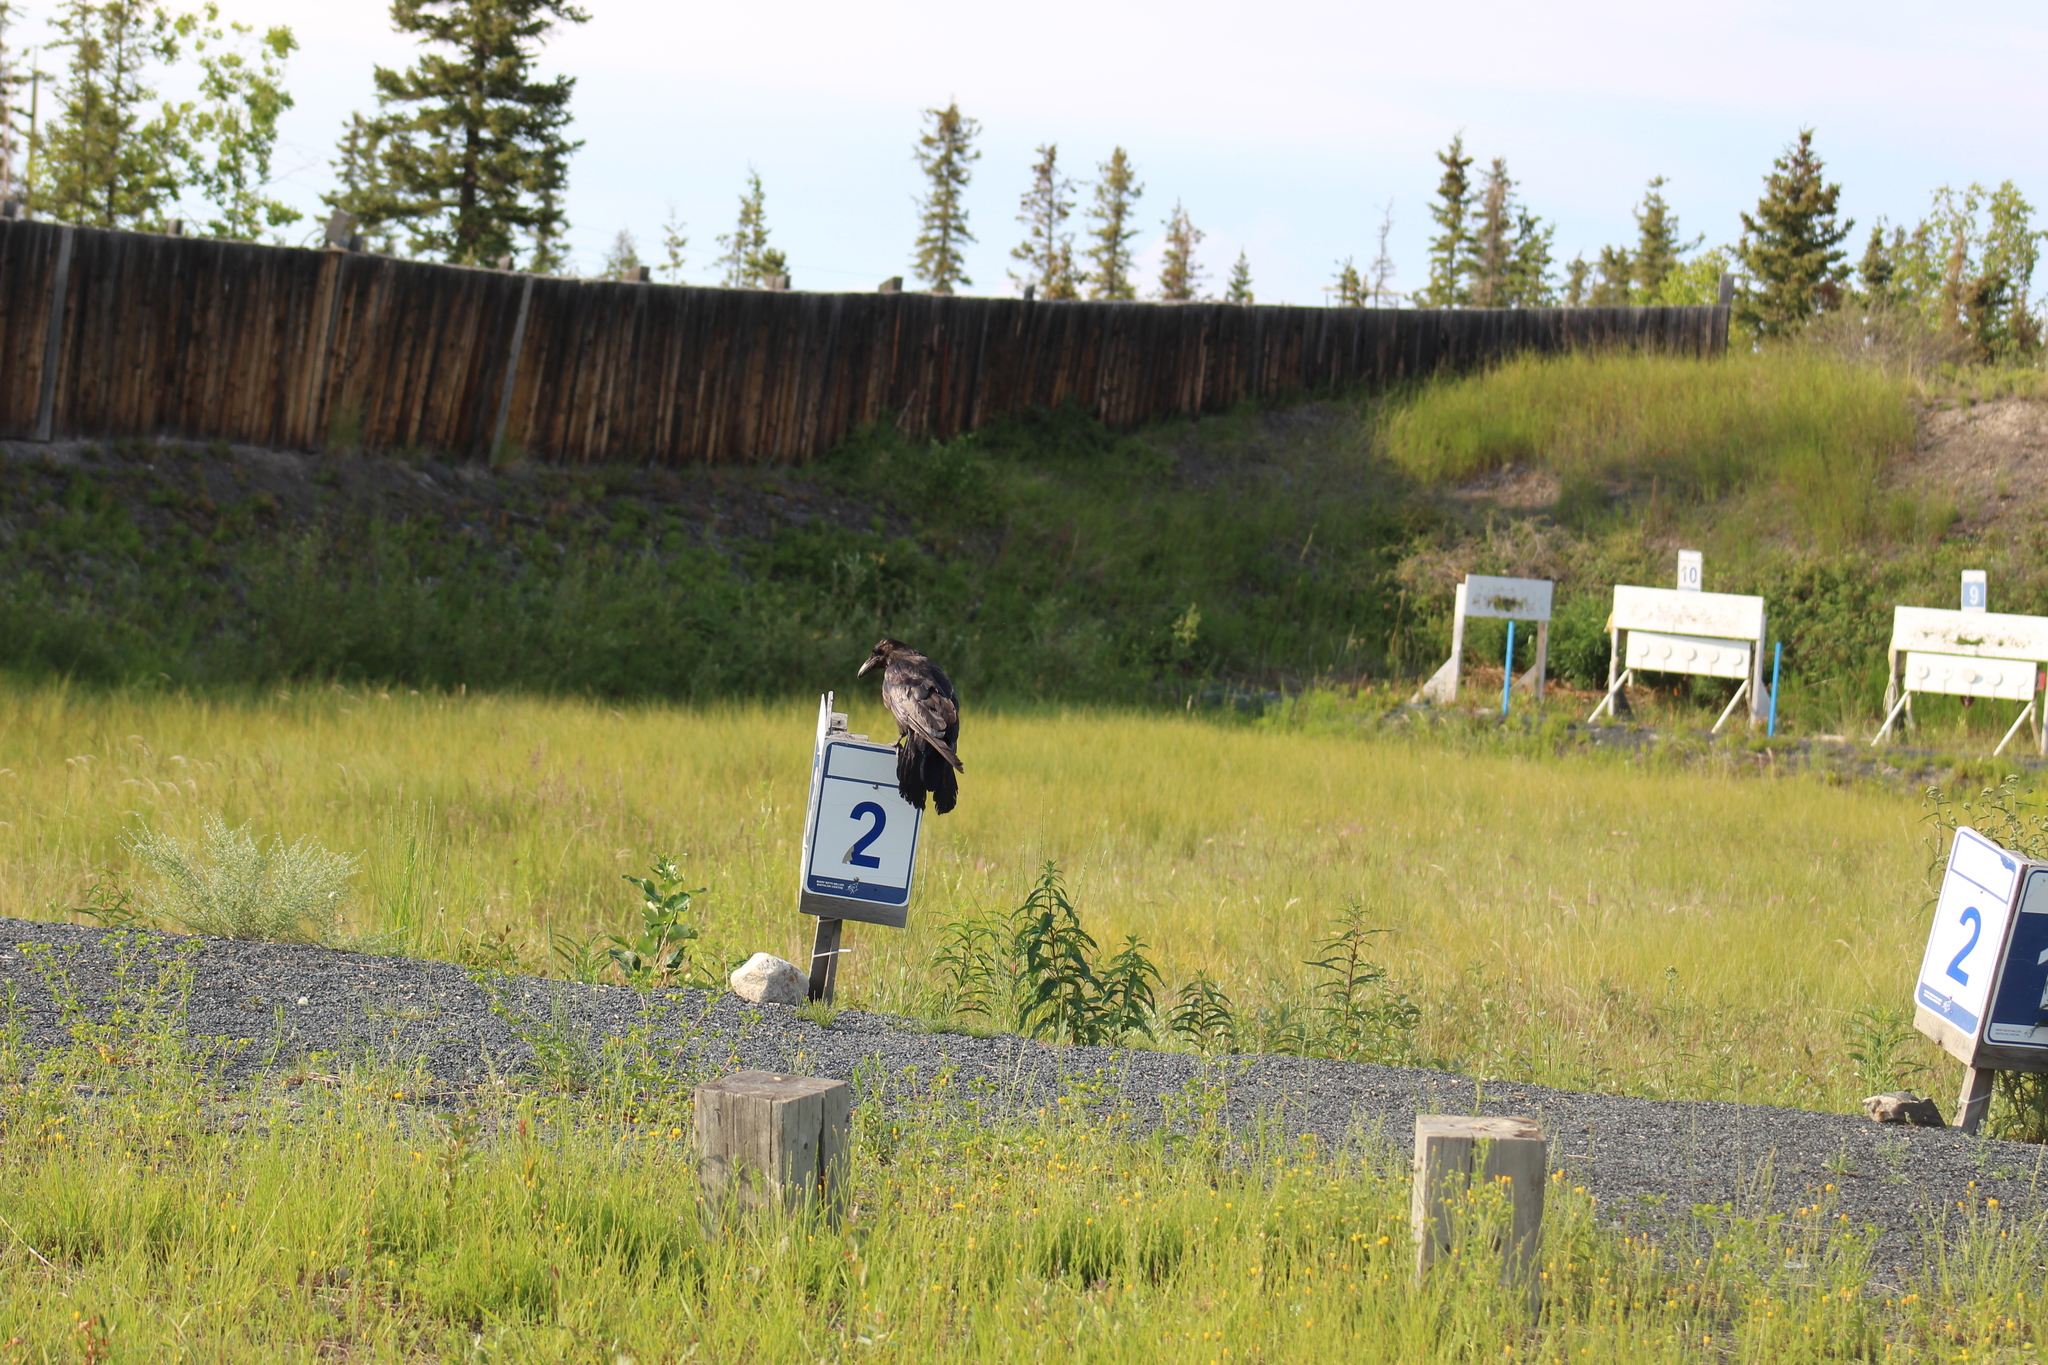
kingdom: Animalia
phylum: Chordata
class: Aves
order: Passeriformes
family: Corvidae
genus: Corvus
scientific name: Corvus corax
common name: Common raven
